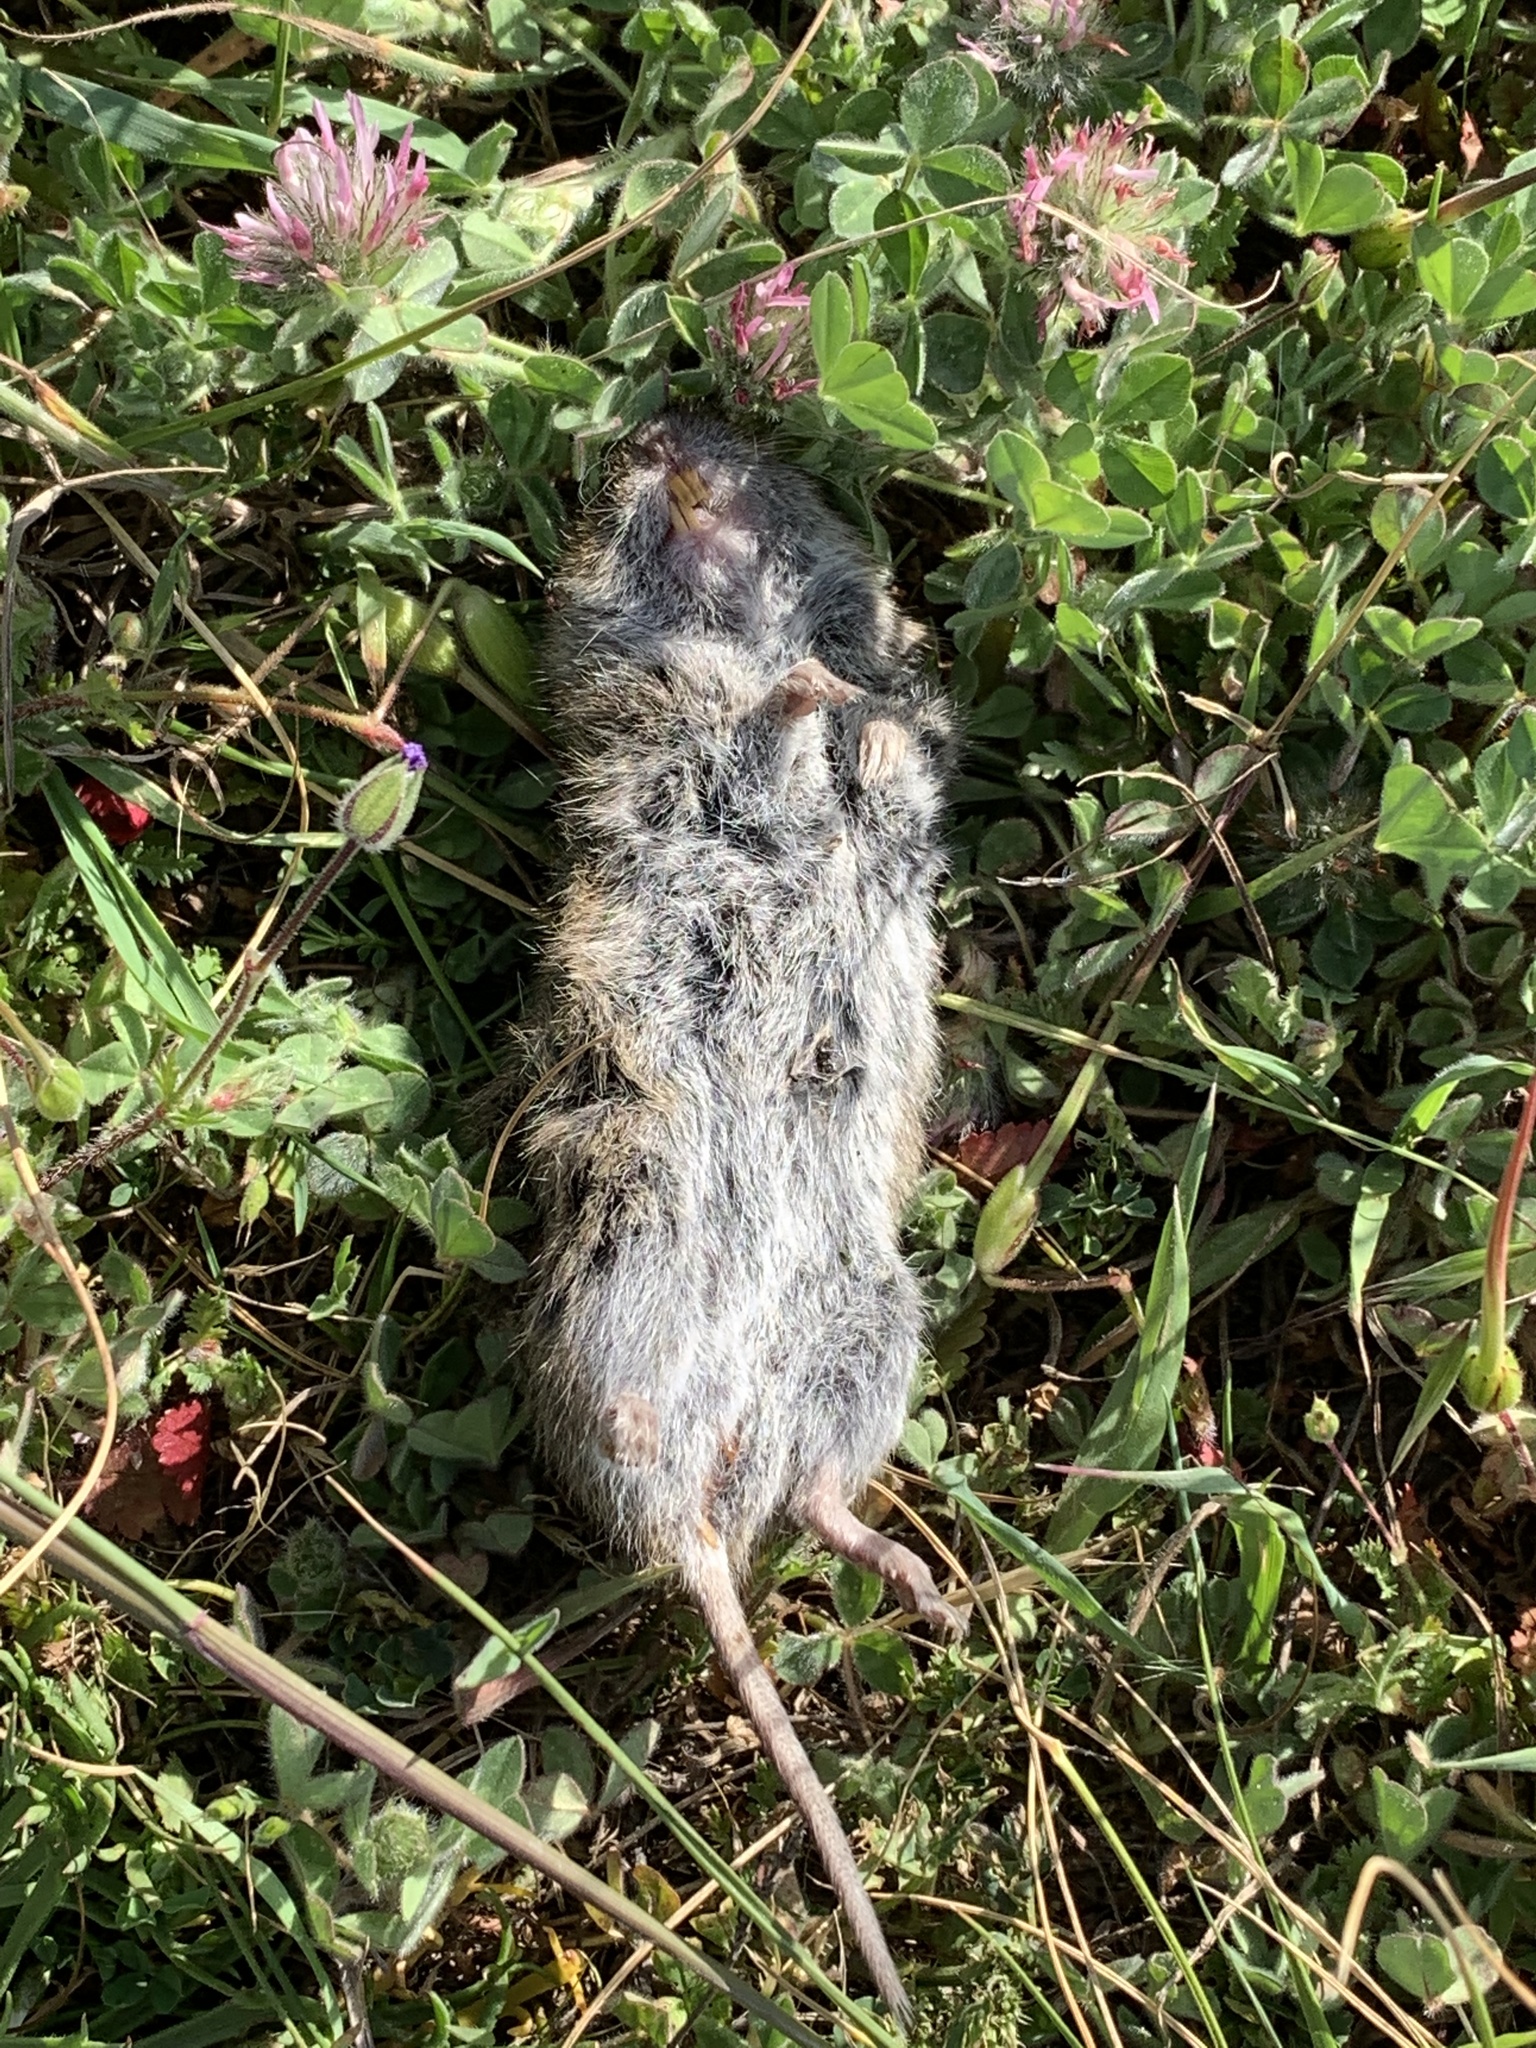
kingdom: Animalia
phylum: Chordata
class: Mammalia
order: Rodentia
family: Cricetidae
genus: Microtus
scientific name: Microtus californicus
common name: California vole
